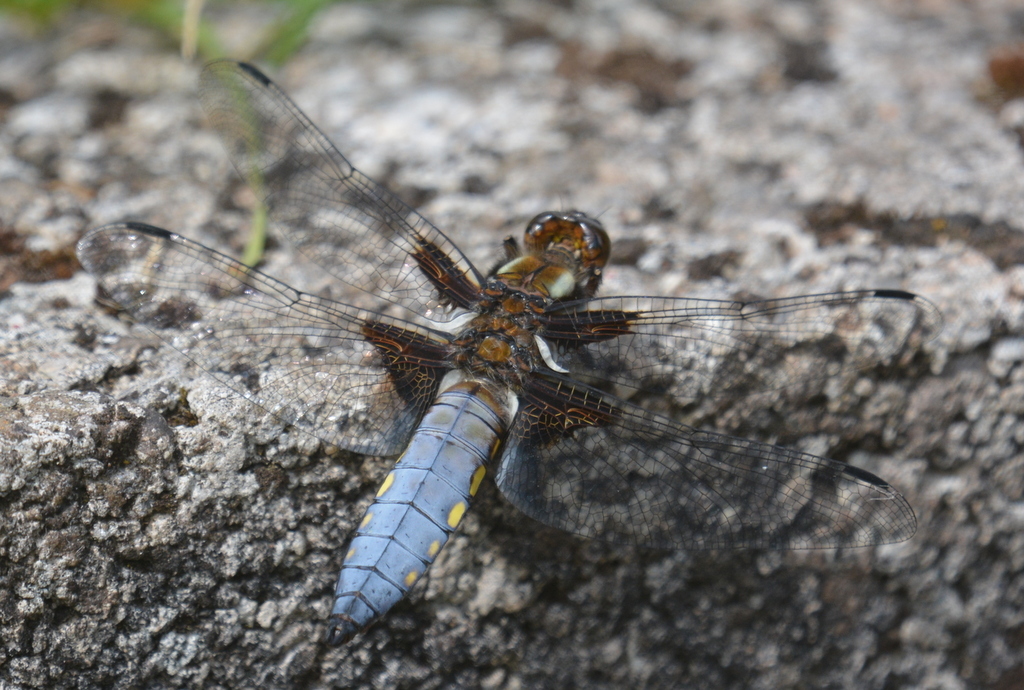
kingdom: Animalia
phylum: Arthropoda
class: Insecta
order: Odonata
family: Libellulidae
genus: Libellula
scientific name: Libellula depressa
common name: Broad-bodied chaser
